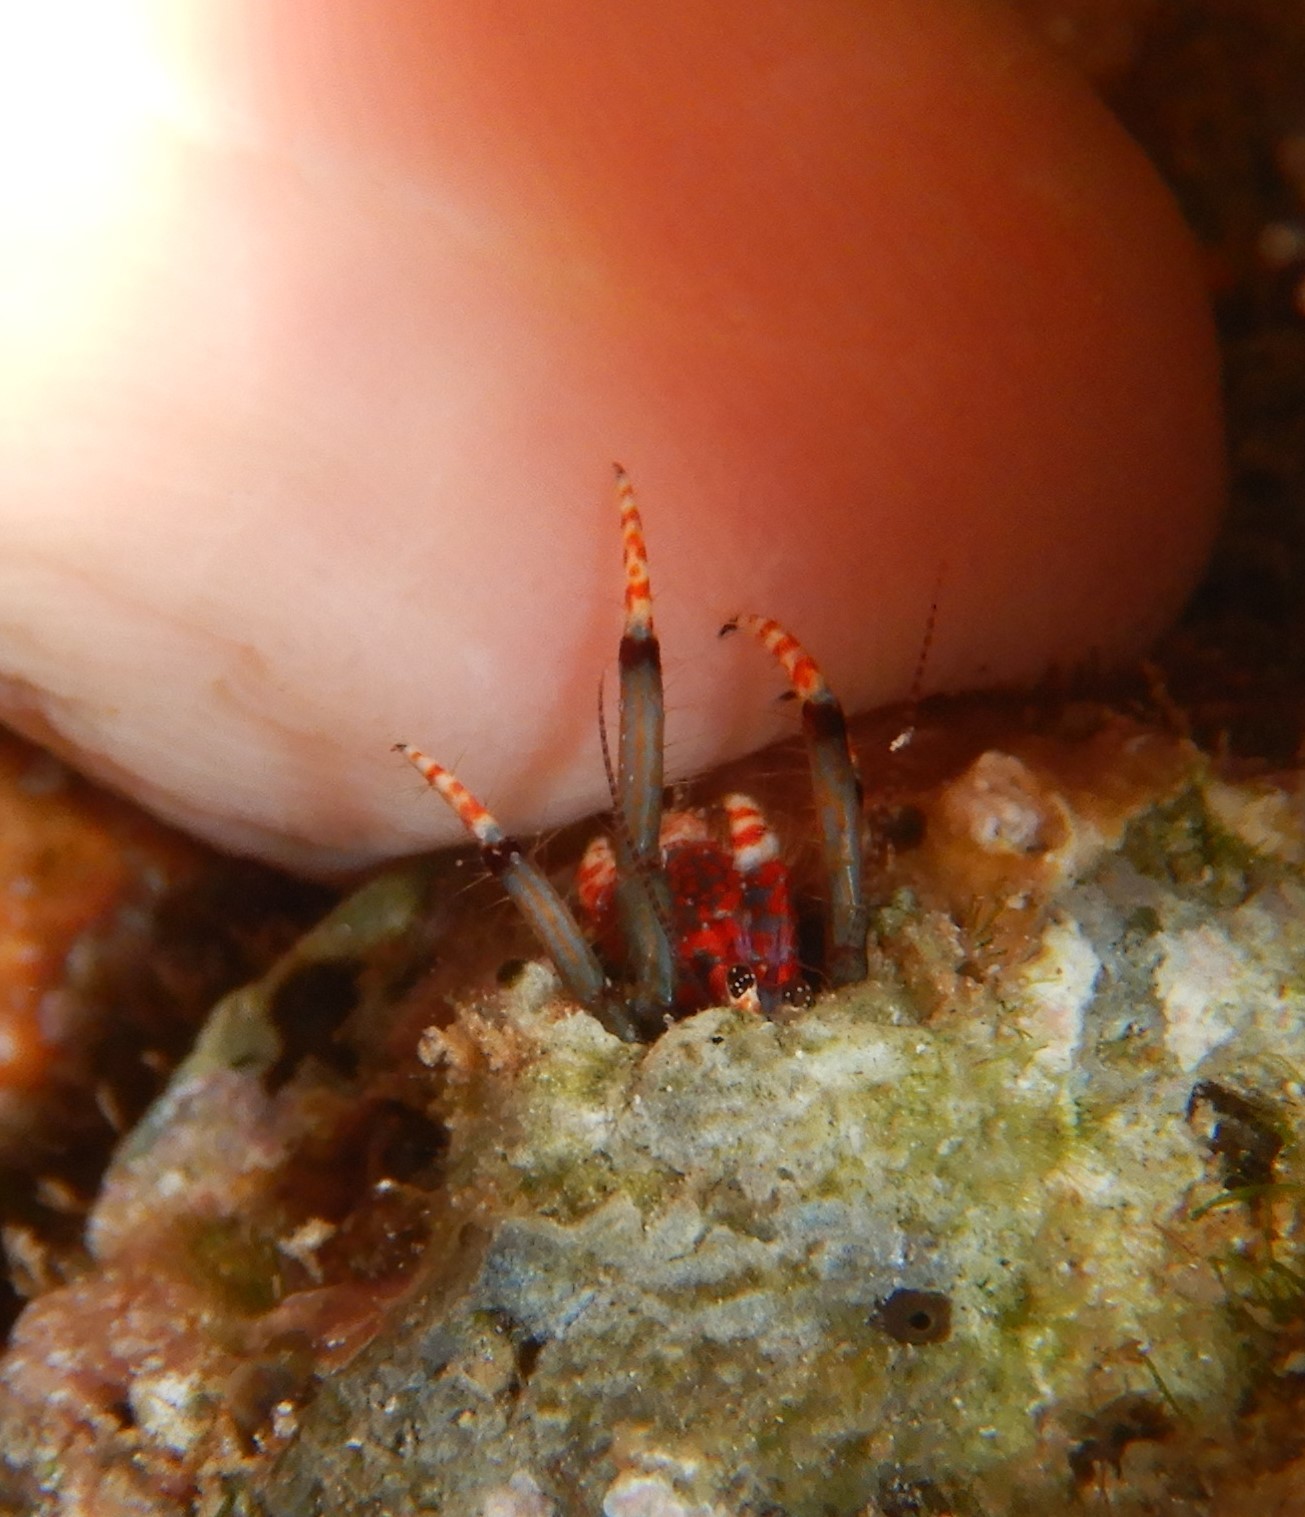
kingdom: Animalia
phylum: Arthropoda
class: Malacostraca
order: Decapoda
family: Diogenidae
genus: Calcinus
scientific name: Calcinus tubularis
